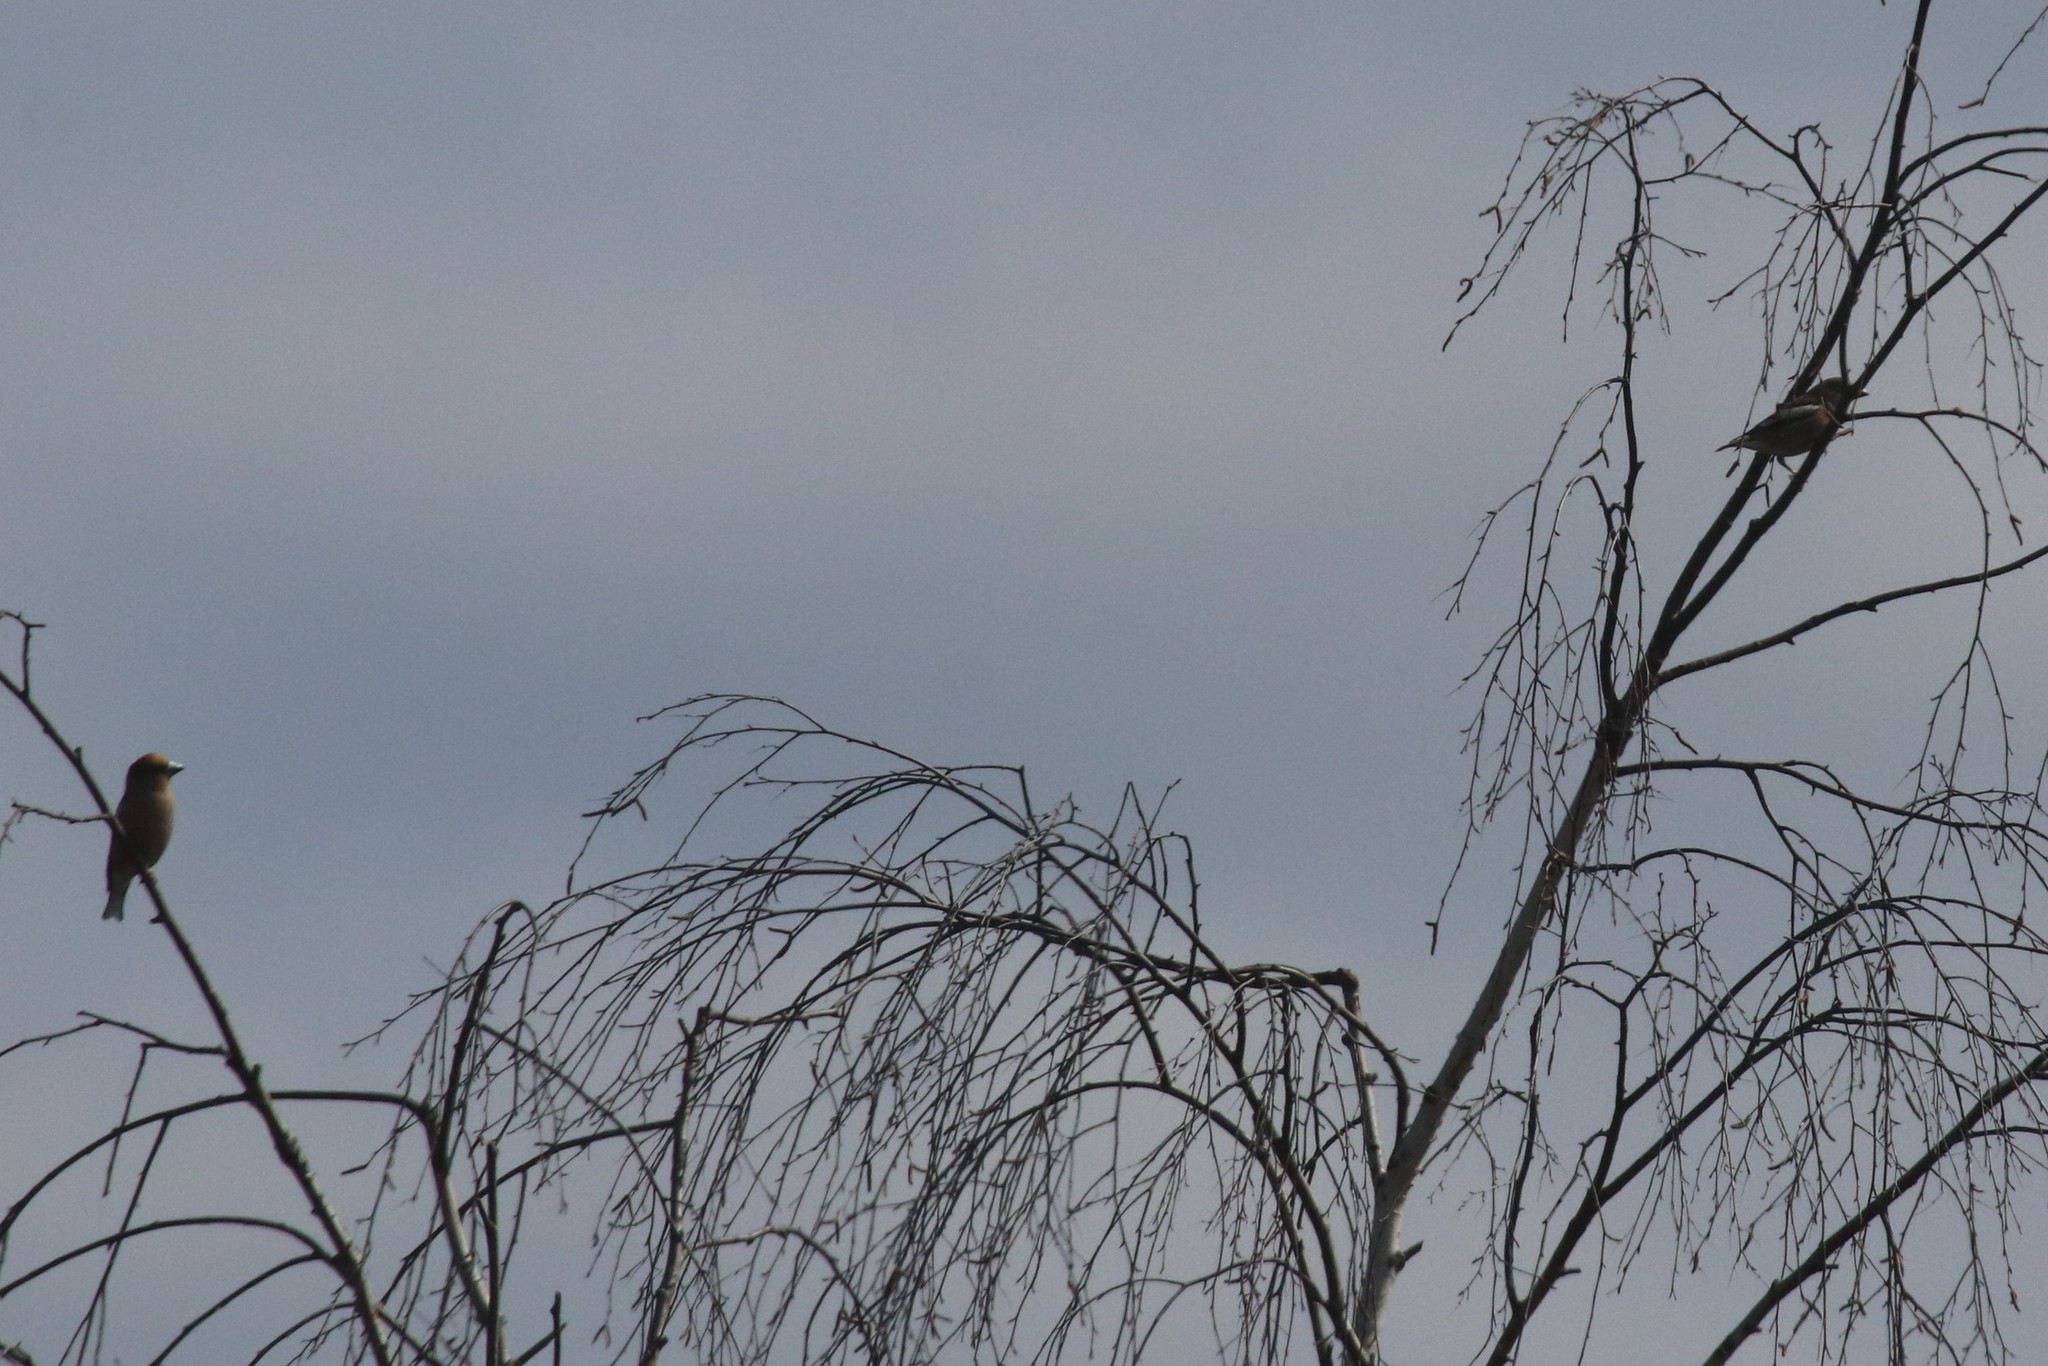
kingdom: Animalia
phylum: Chordata
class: Aves
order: Passeriformes
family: Fringillidae
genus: Coccothraustes
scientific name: Coccothraustes coccothraustes
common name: Hawfinch
